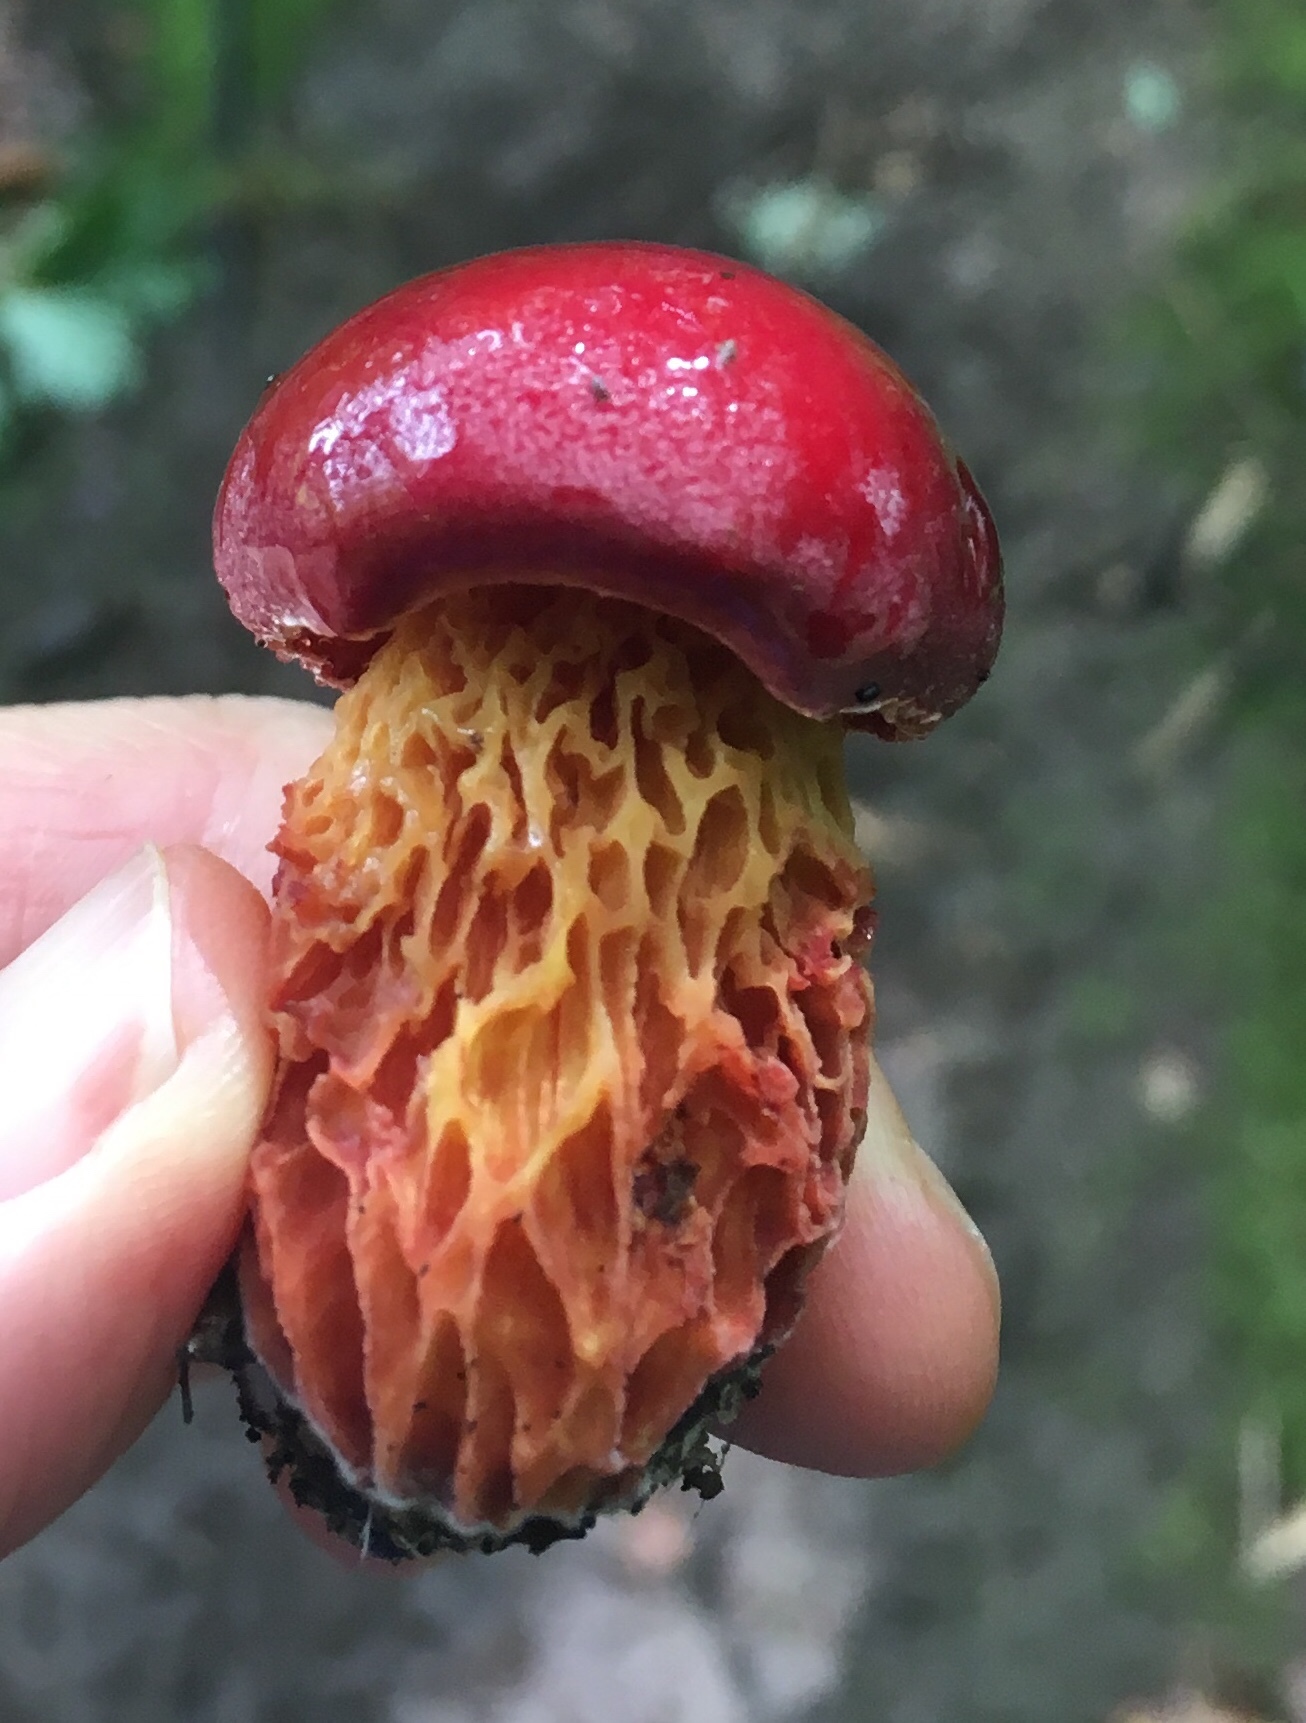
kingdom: Fungi
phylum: Basidiomycota
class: Agaricomycetes
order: Boletales
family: Boletaceae
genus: Butyriboletus
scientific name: Butyriboletus frostii
